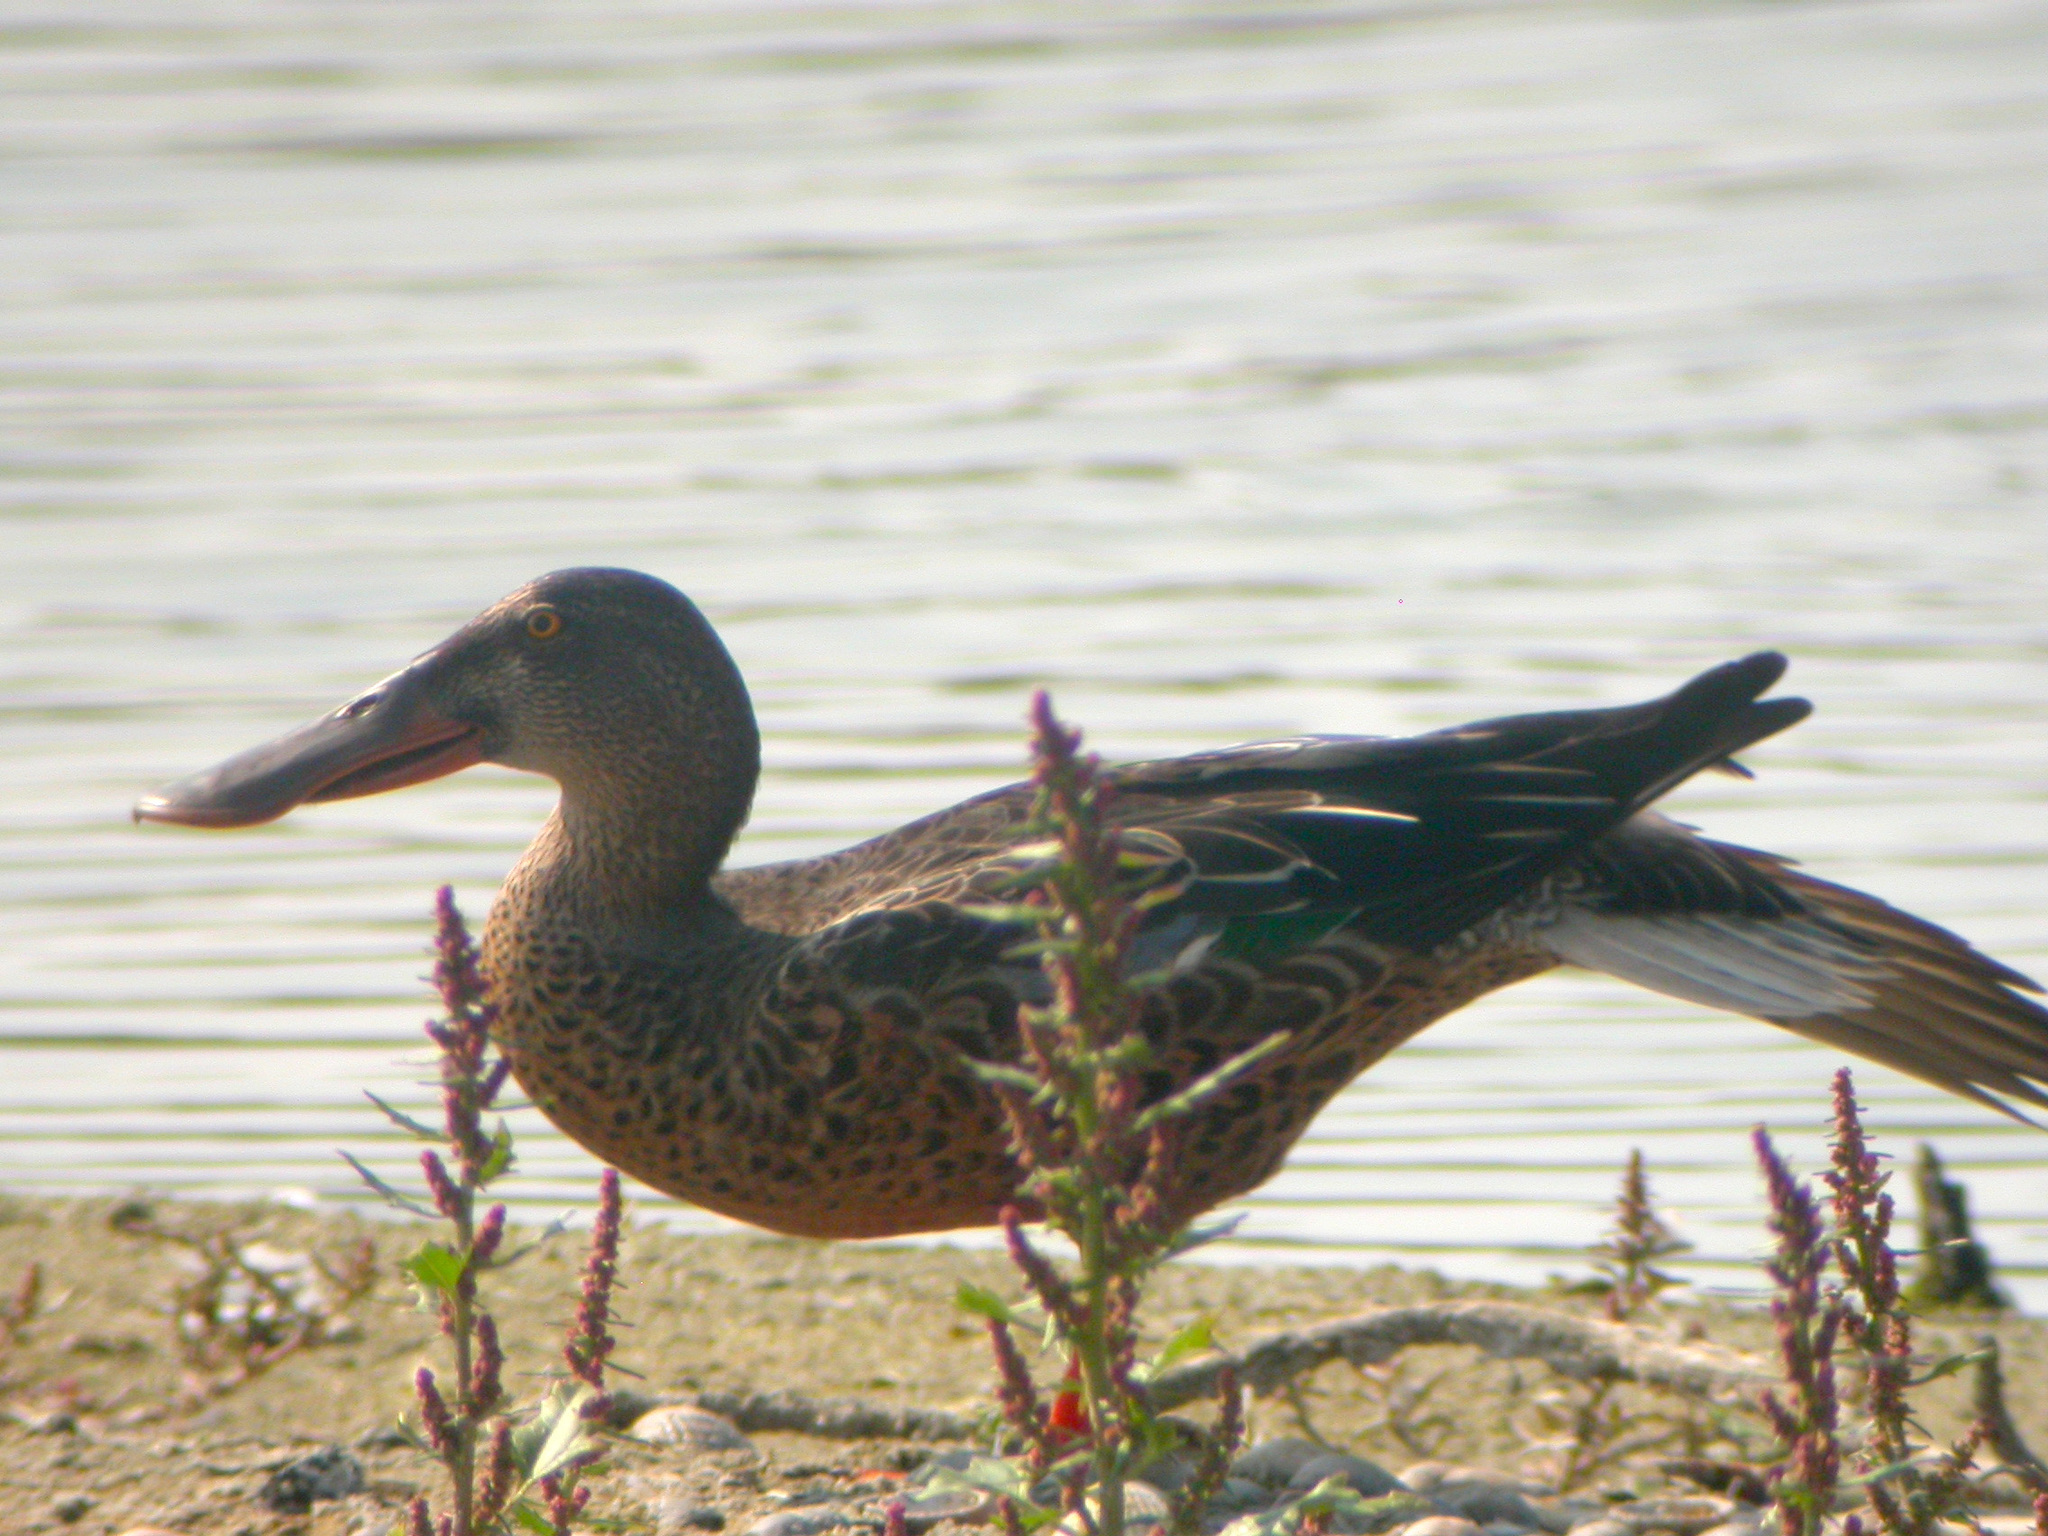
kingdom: Animalia
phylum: Chordata
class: Aves
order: Anseriformes
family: Anatidae
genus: Spatula
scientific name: Spatula clypeata
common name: Northern shoveler
